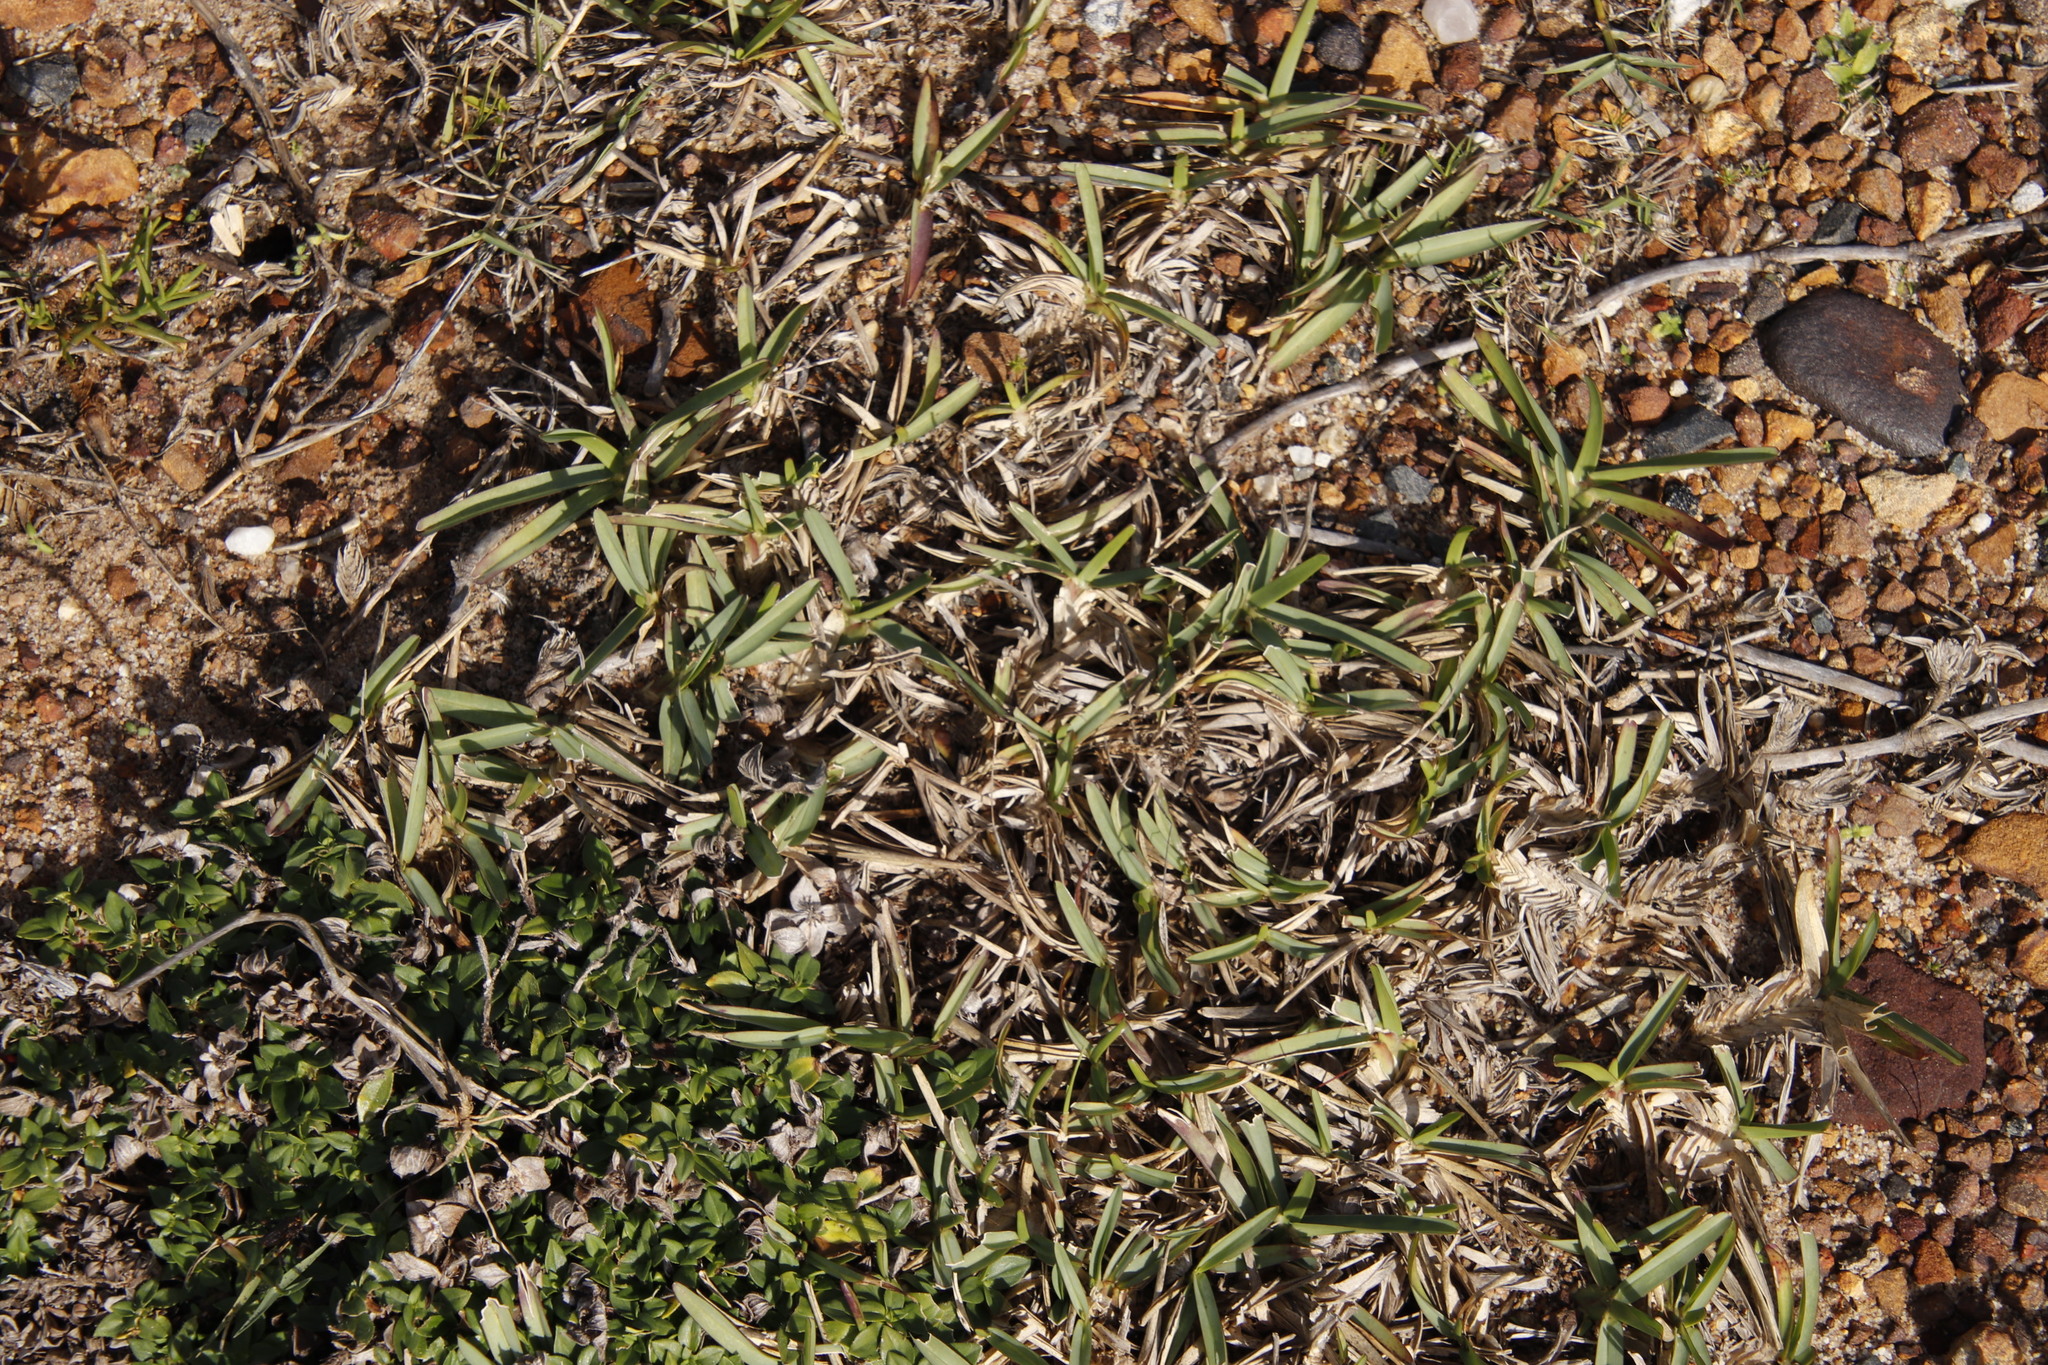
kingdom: Plantae
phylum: Tracheophyta
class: Liliopsida
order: Poales
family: Poaceae
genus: Stenotaphrum
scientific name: Stenotaphrum secundatum
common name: St. augustine grass
